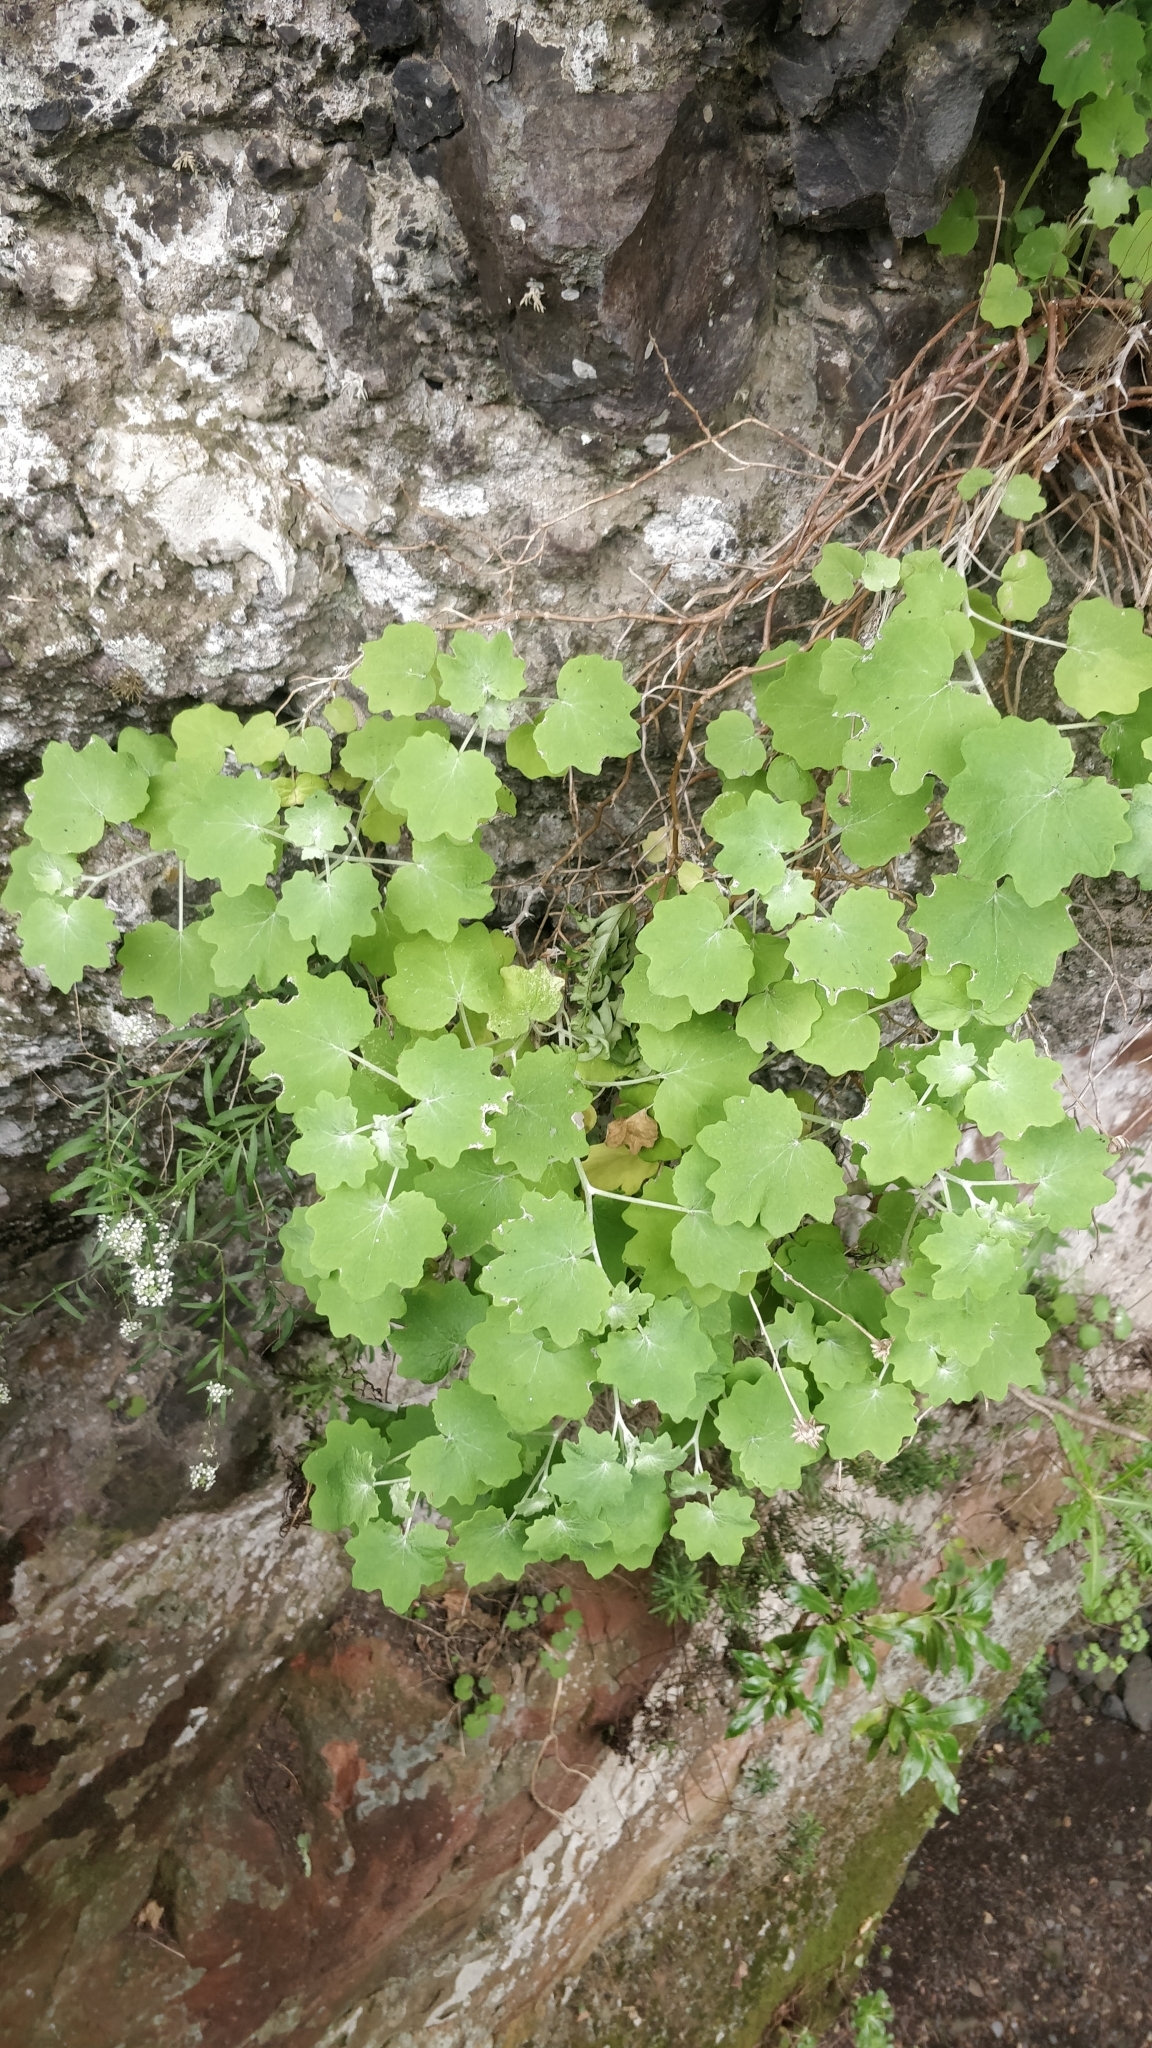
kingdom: Plantae
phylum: Tracheophyta
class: Magnoliopsida
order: Asterales
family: Asteraceae
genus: Pericallis
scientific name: Pericallis lanata
